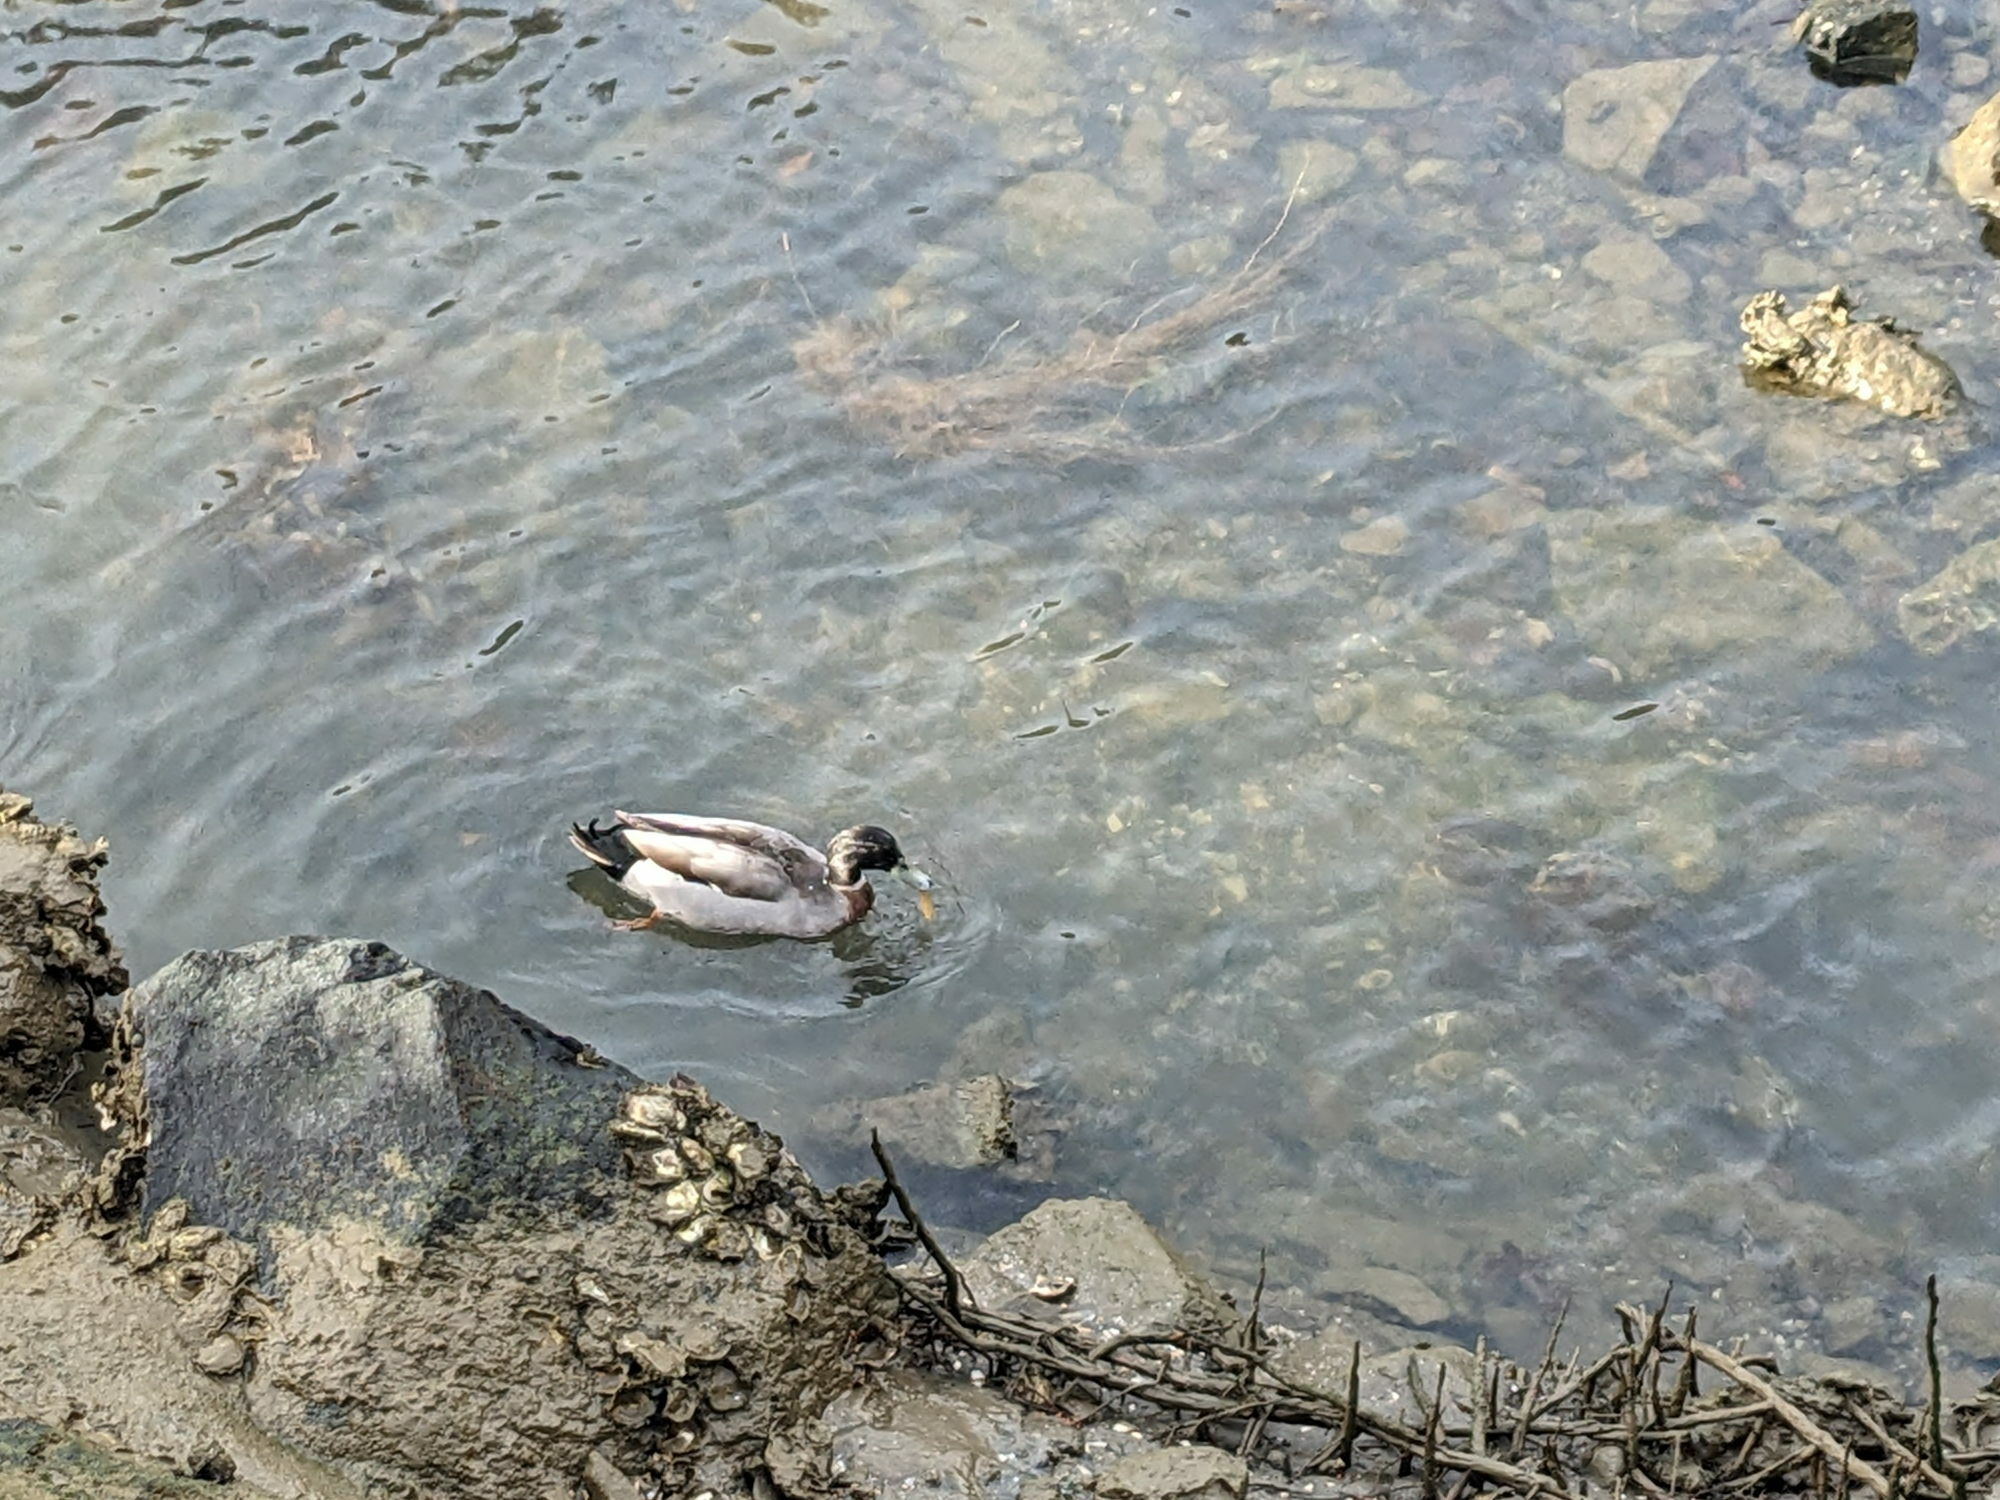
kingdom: Animalia
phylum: Chordata
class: Aves
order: Anseriformes
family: Anatidae
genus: Anas
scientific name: Anas platyrhynchos
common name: Mallard
